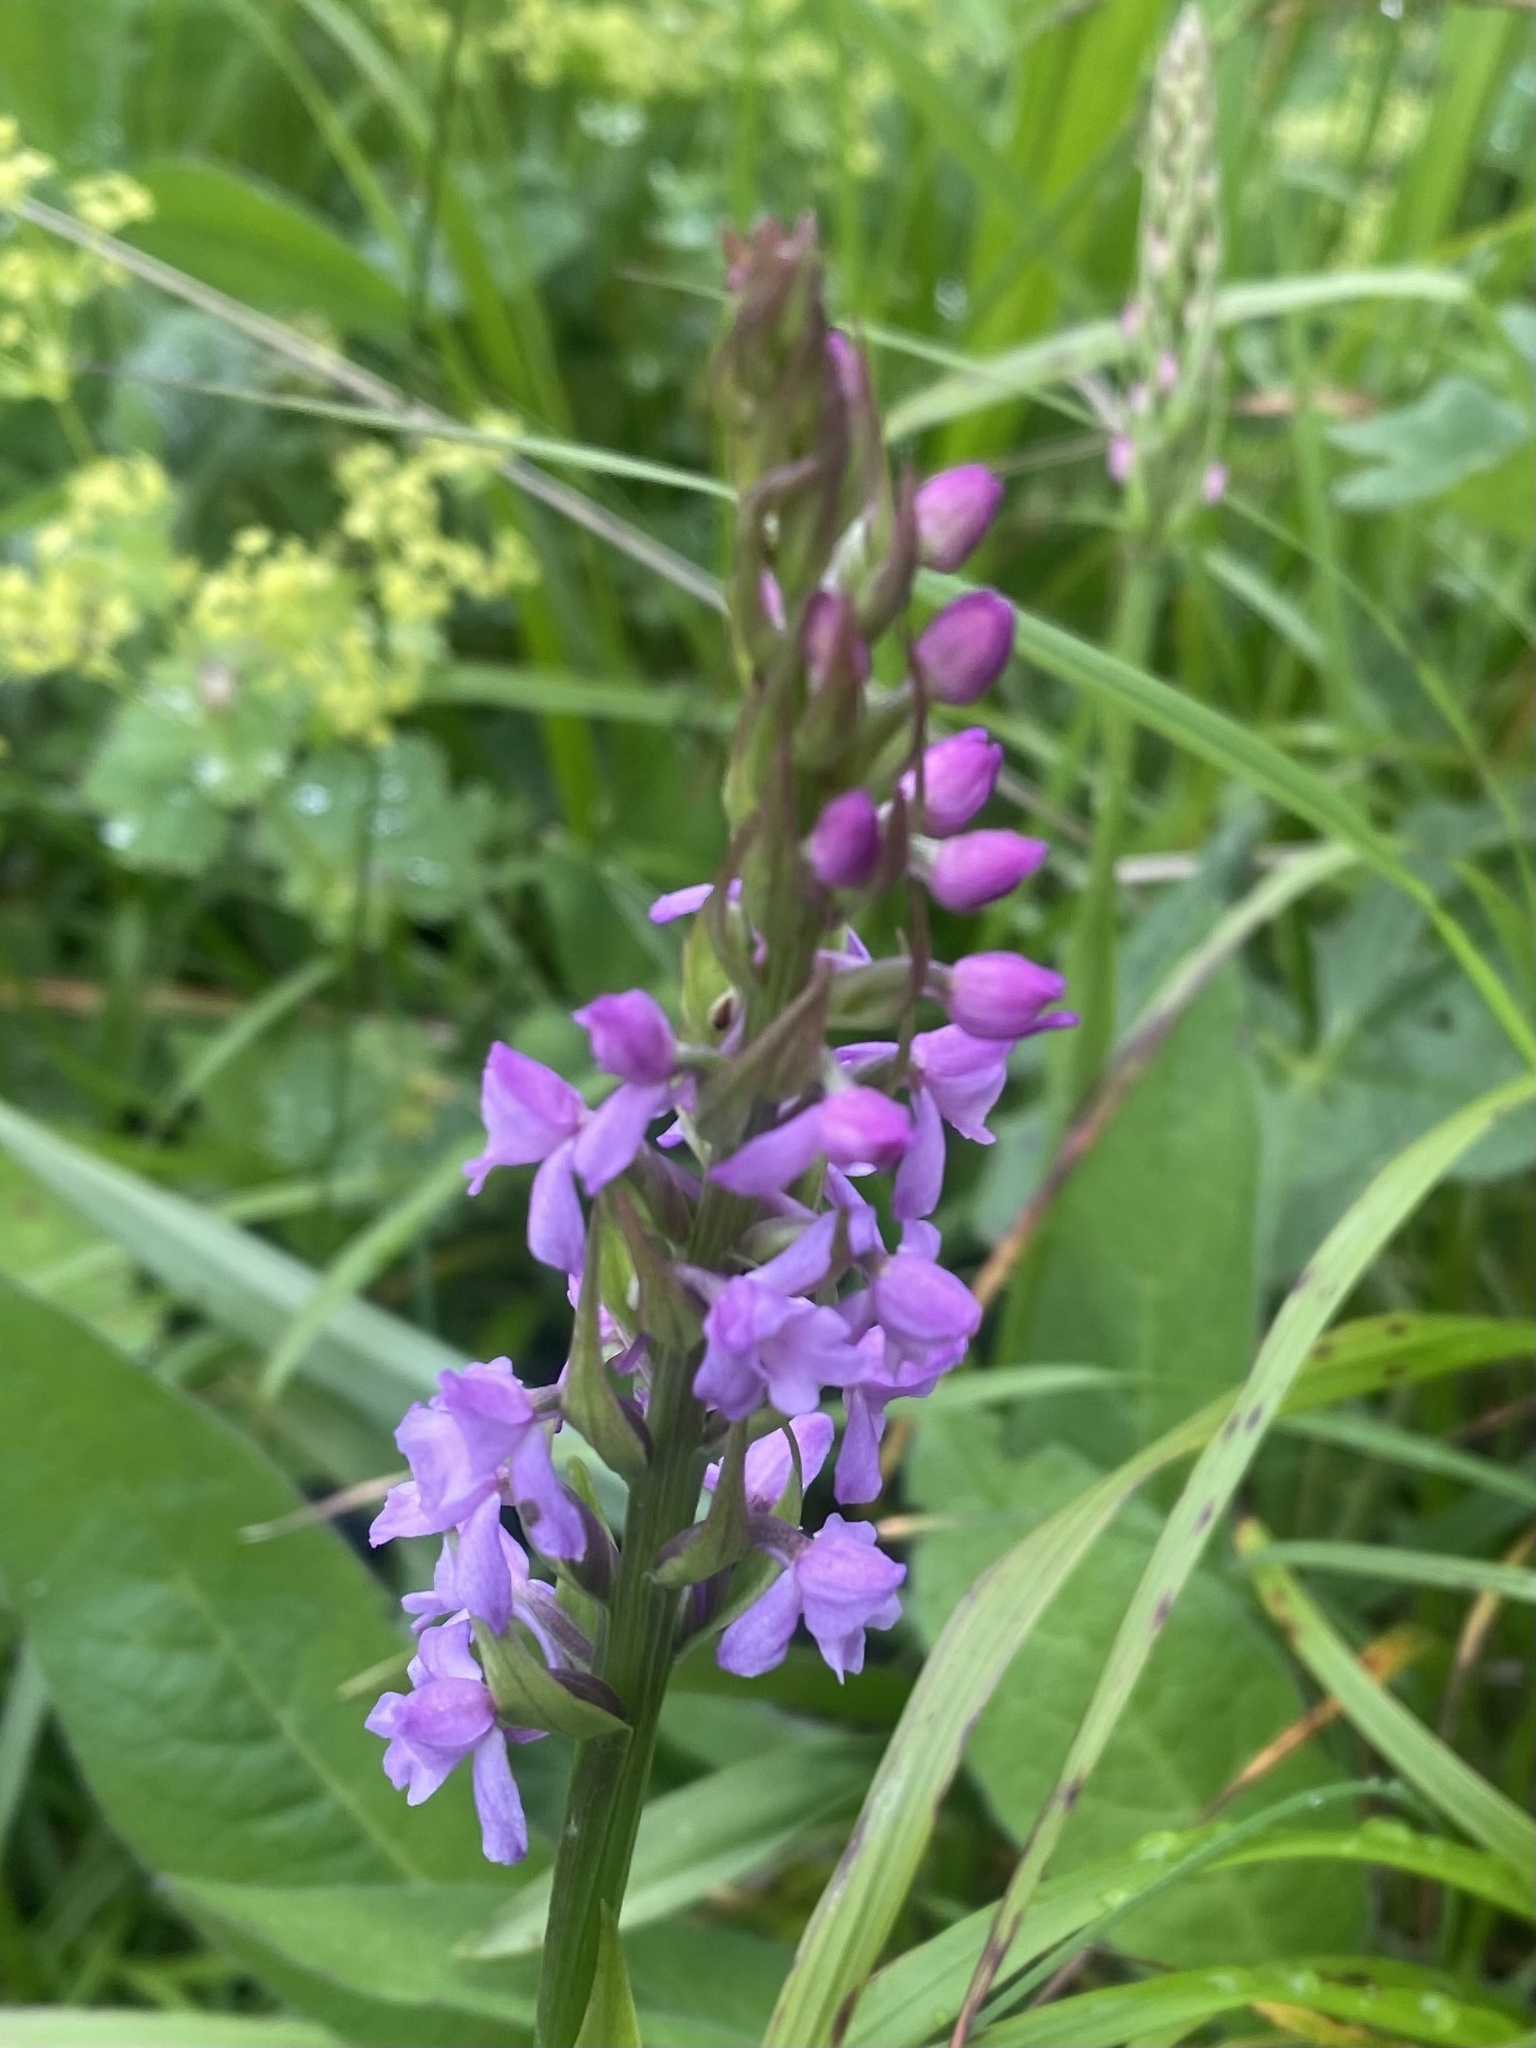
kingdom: Plantae
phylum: Tracheophyta
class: Liliopsida
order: Asparagales
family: Orchidaceae
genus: Gymnadenia
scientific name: Gymnadenia conopsea
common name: Fragrant orchid
